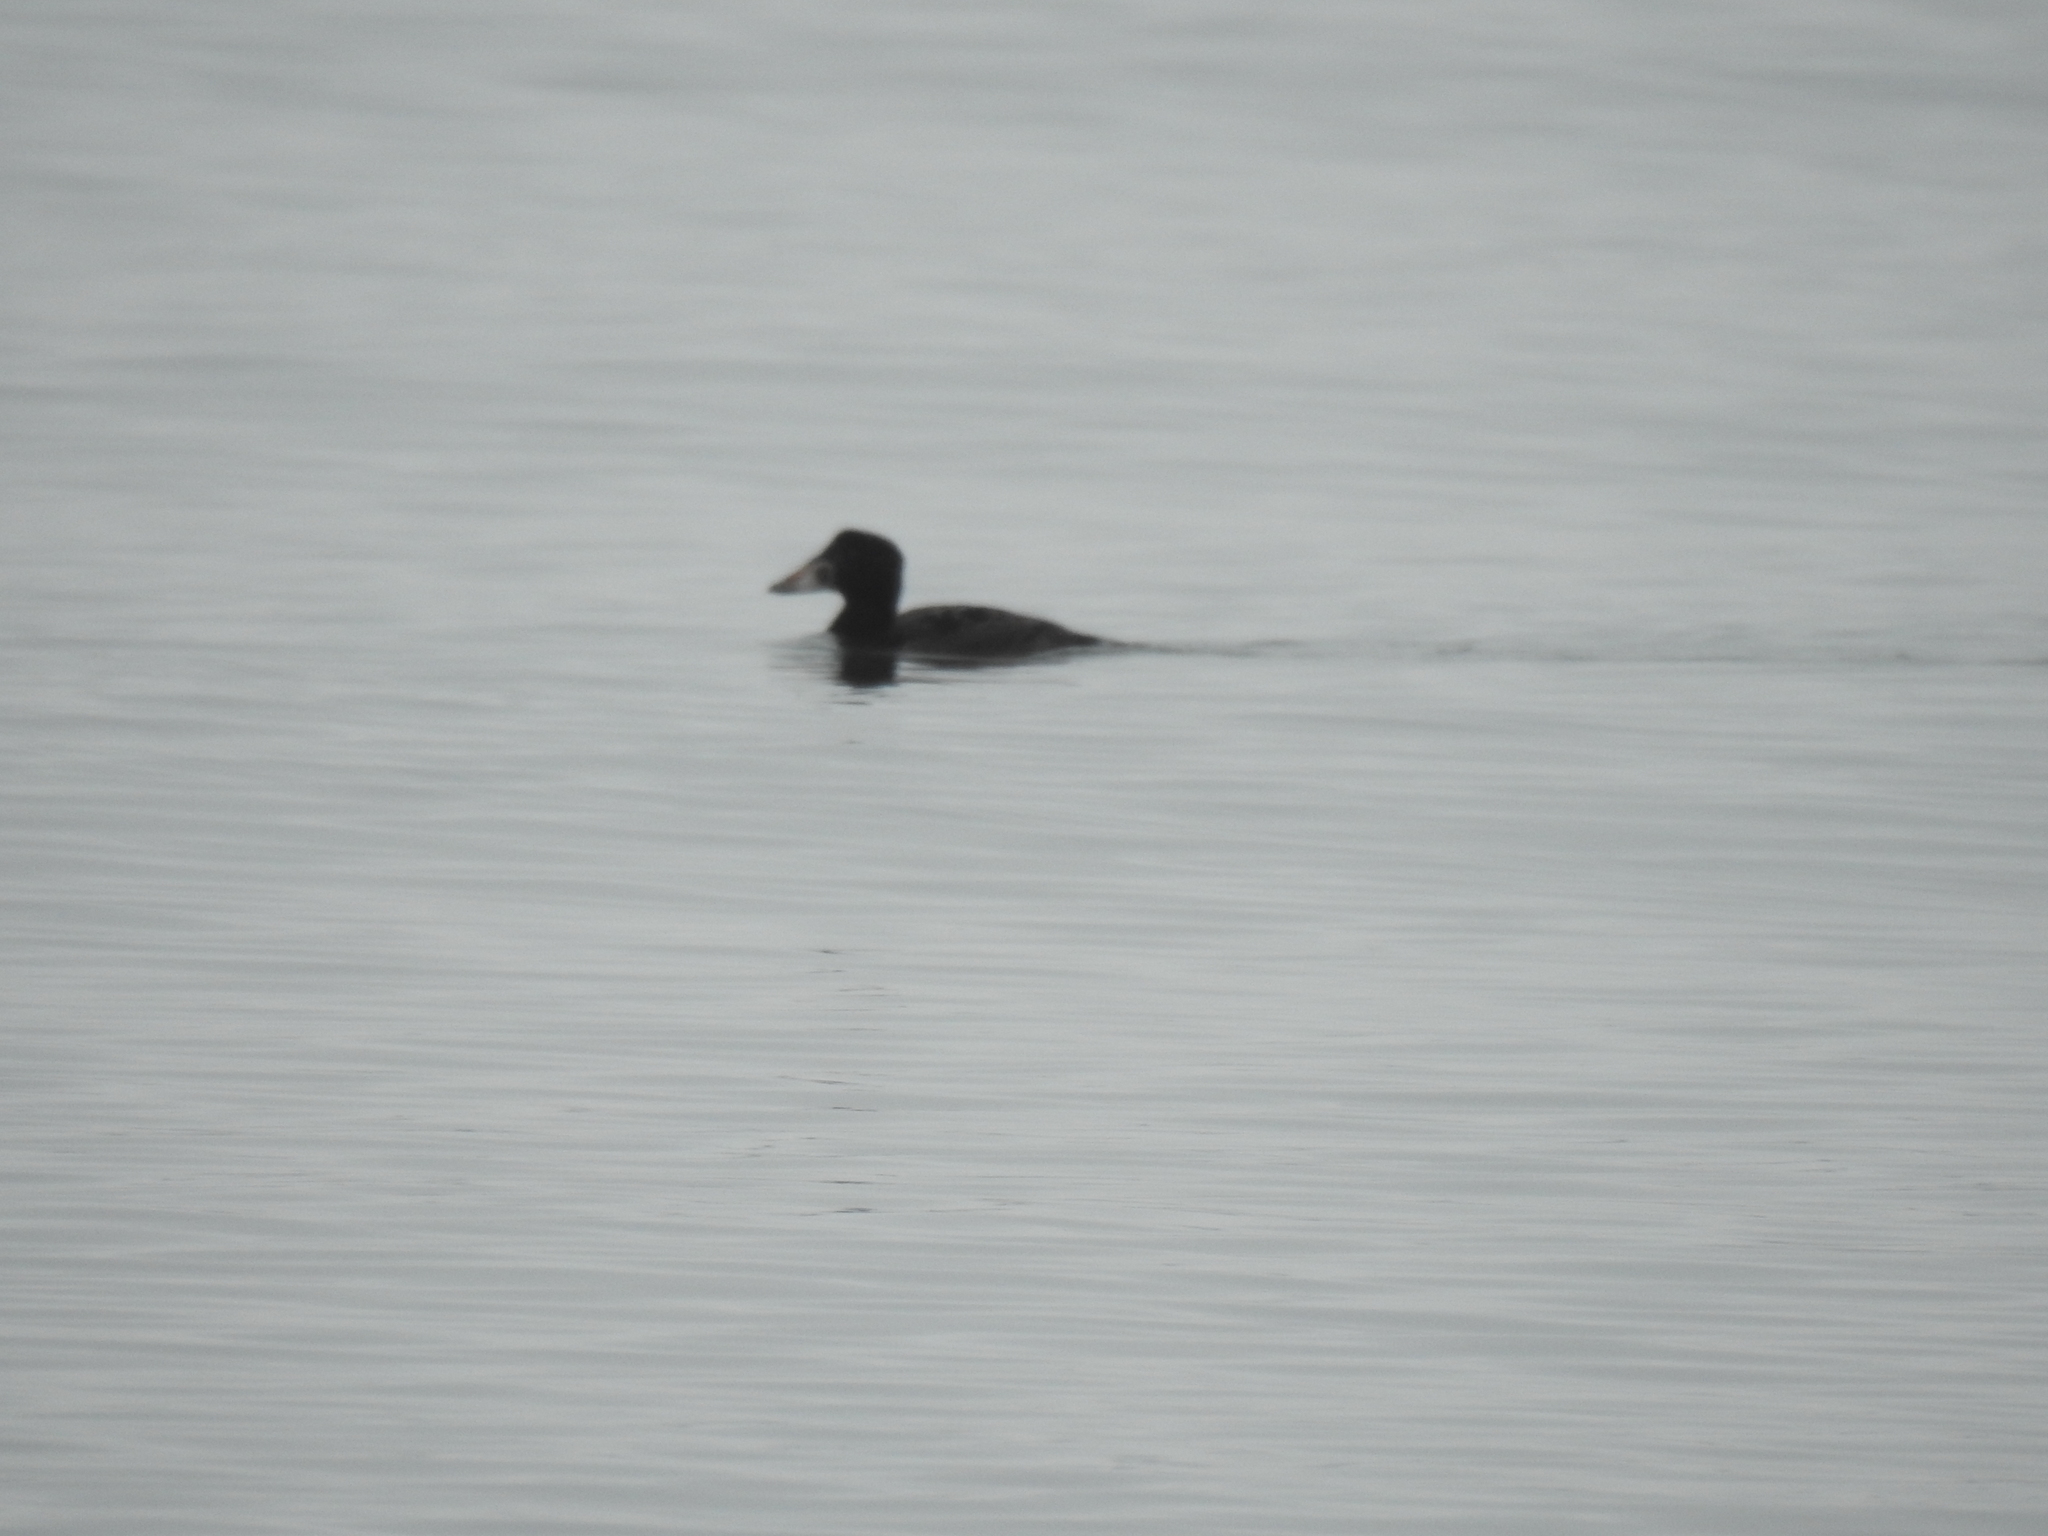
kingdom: Animalia
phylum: Chordata
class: Aves
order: Anseriformes
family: Anatidae
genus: Melanitta
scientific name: Melanitta perspicillata
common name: Surf scoter
